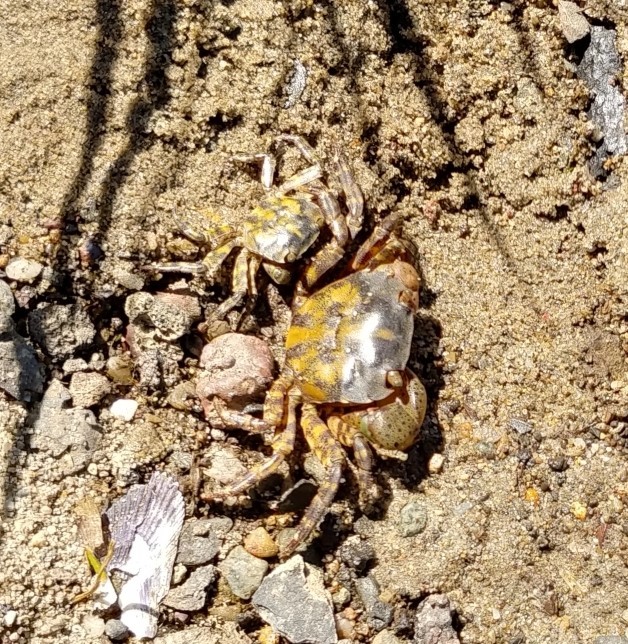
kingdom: Animalia
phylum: Arthropoda
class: Malacostraca
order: Decapoda
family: Varunidae
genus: Hemigrapsus
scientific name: Hemigrapsus sanguineus
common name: Asian shore crab
